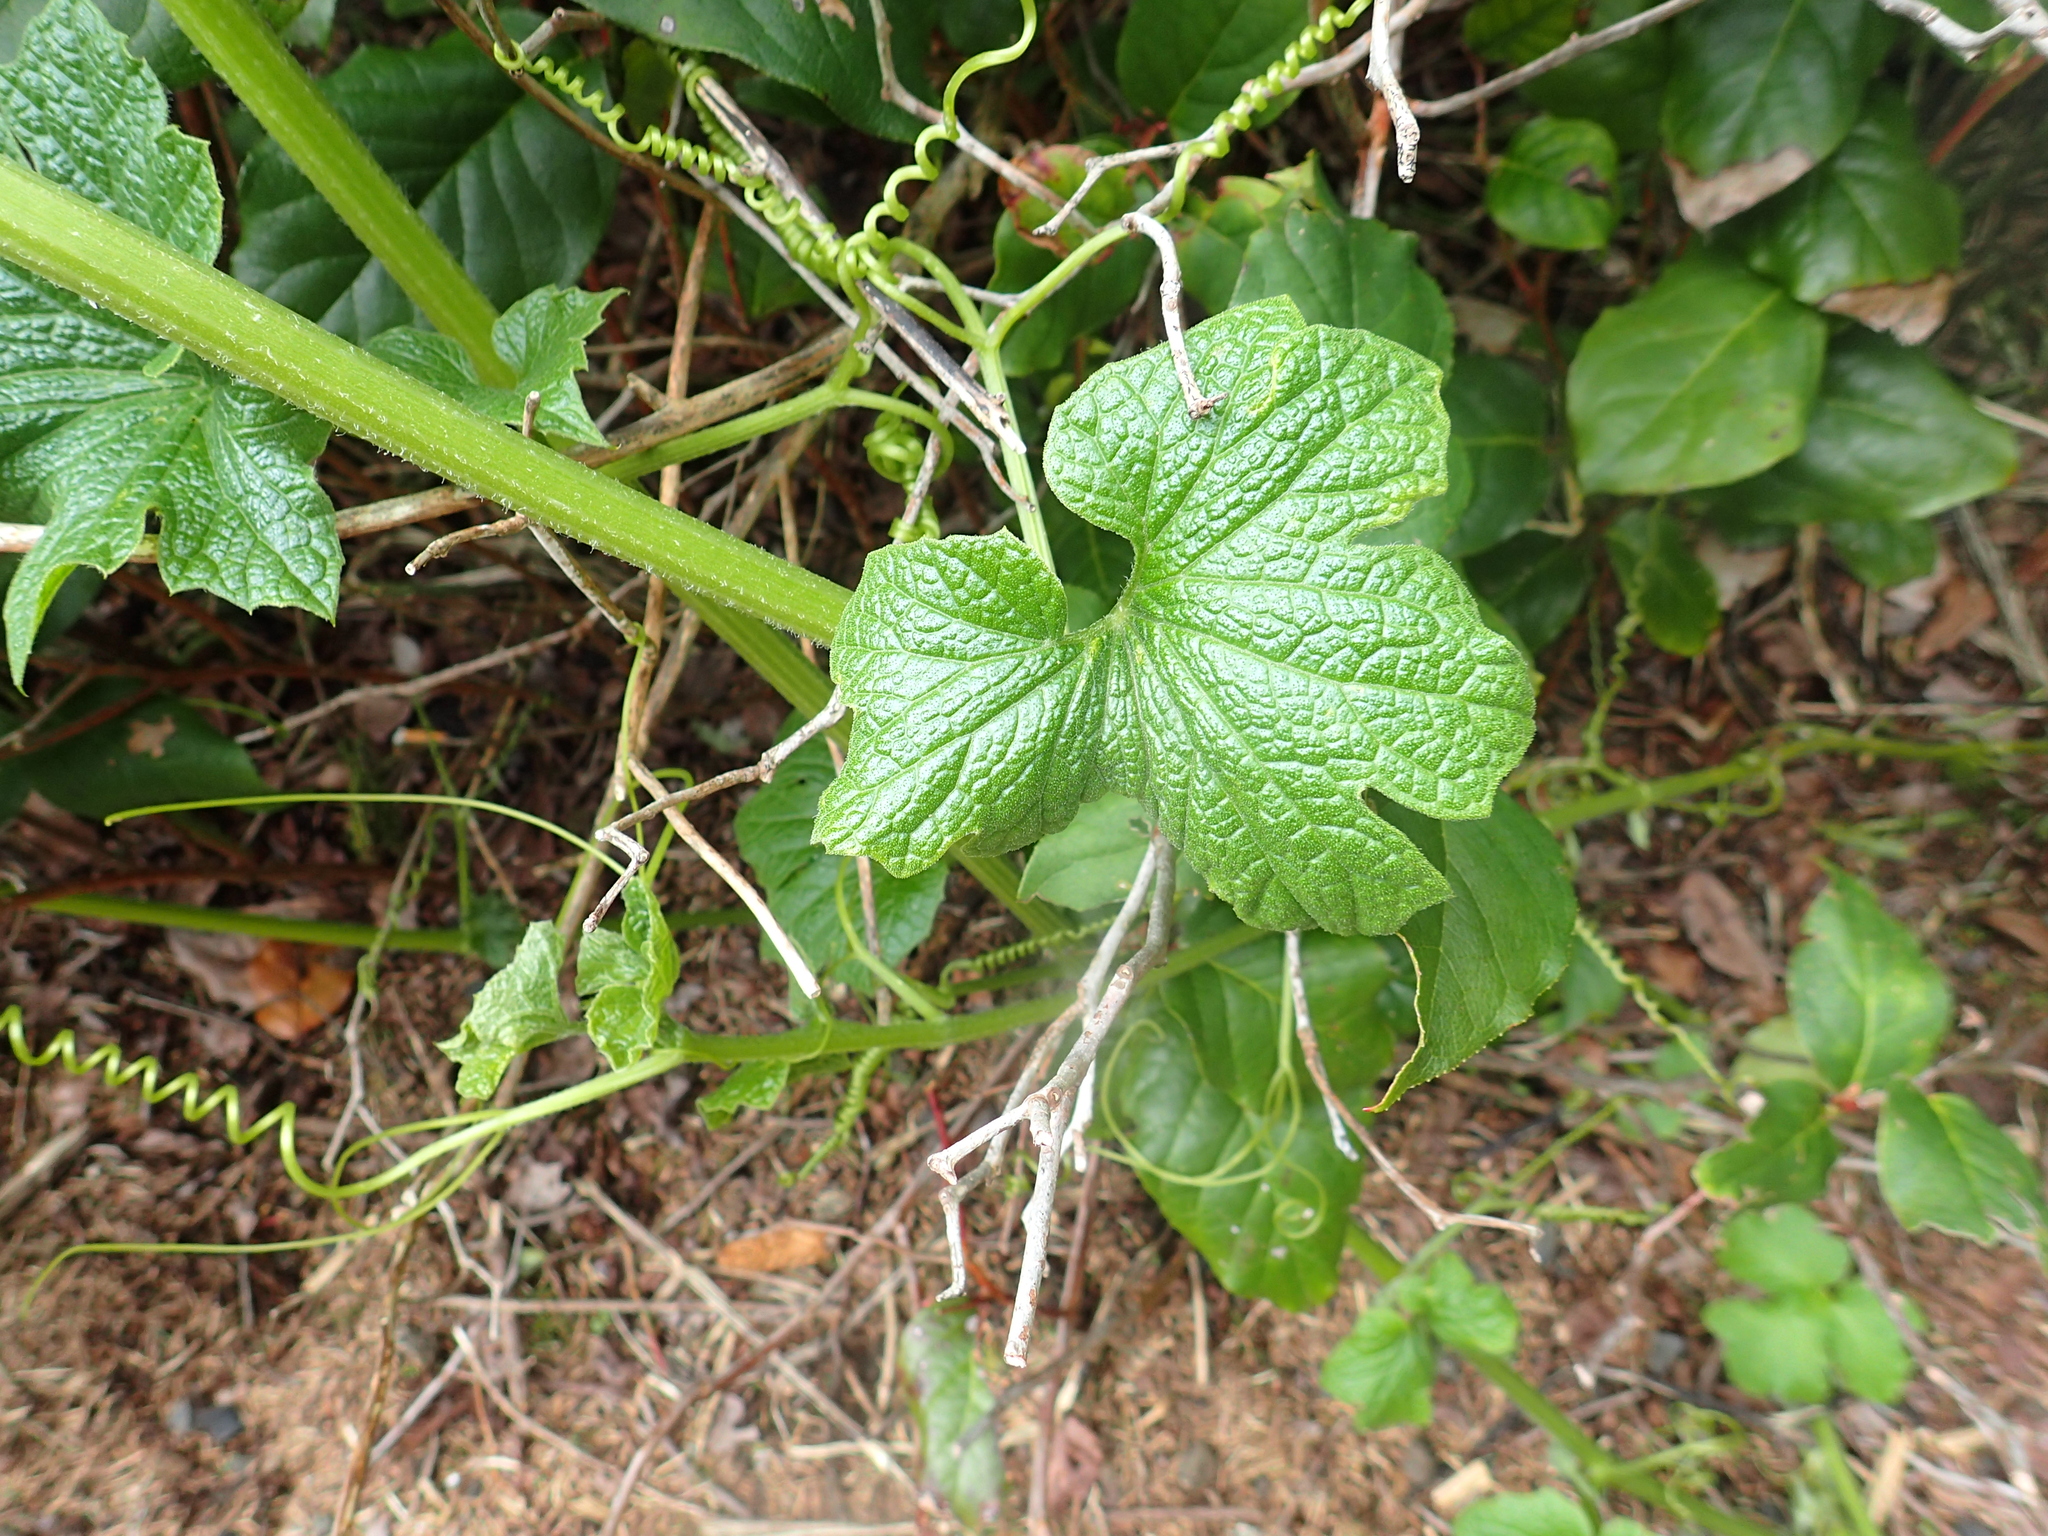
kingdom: Plantae
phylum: Tracheophyta
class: Magnoliopsida
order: Cucurbitales
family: Cucurbitaceae
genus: Marah
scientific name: Marah oregana
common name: Coastal manroot
